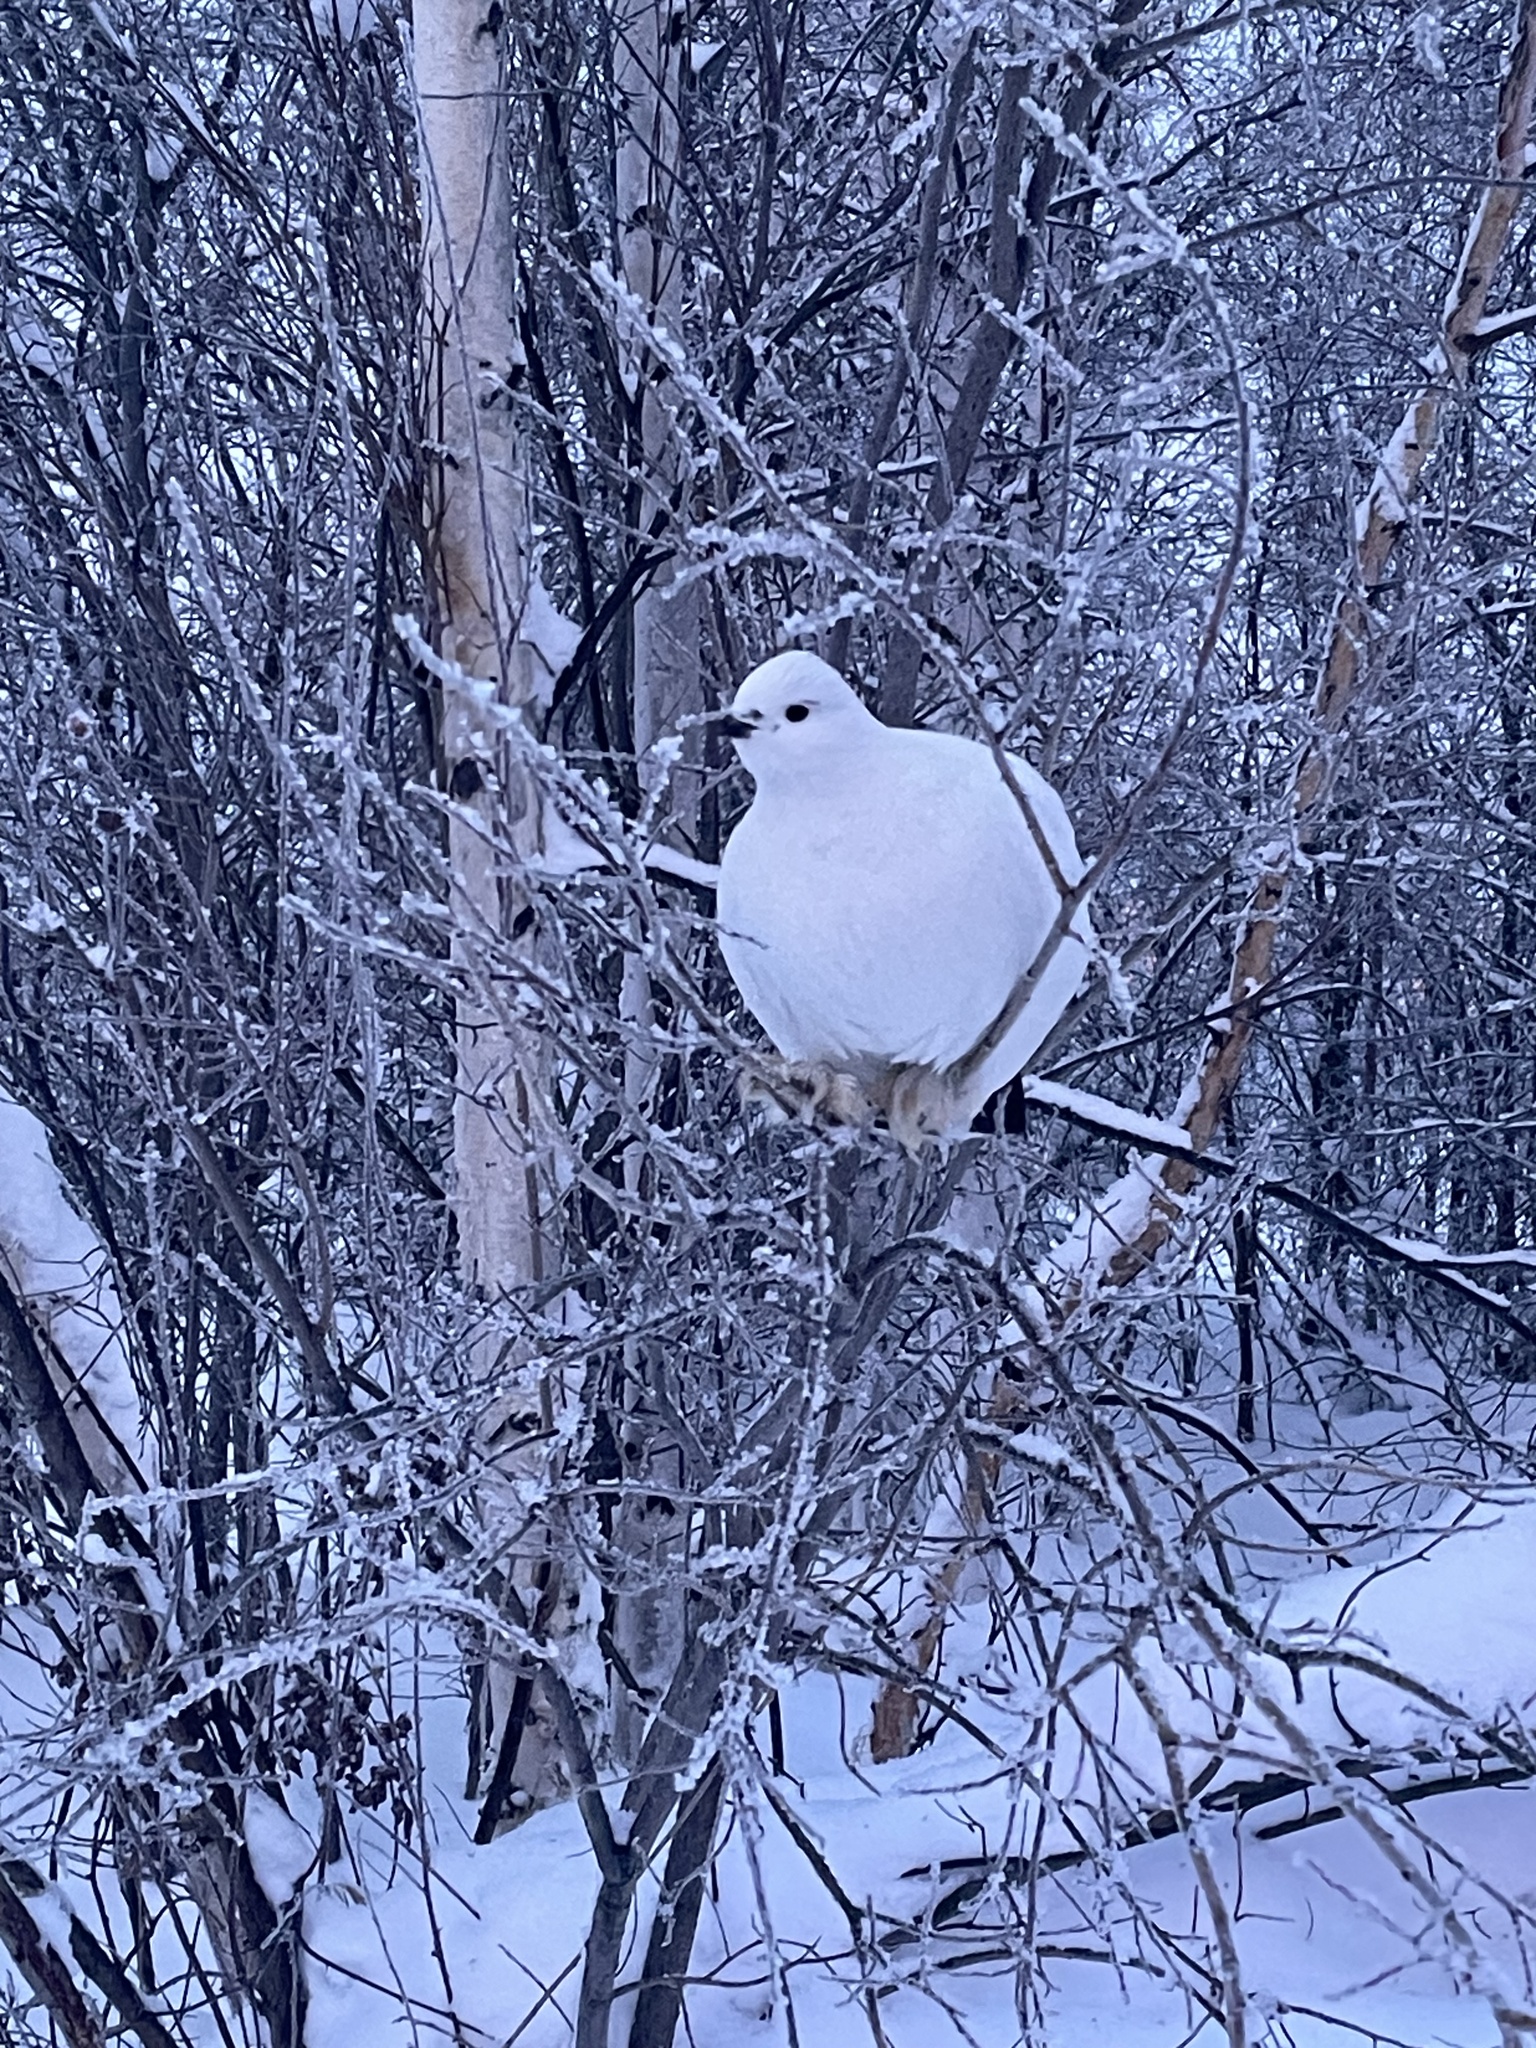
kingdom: Animalia
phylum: Chordata
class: Aves
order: Galliformes
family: Phasianidae
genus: Lagopus
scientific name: Lagopus lagopus
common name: Willow ptarmigan
